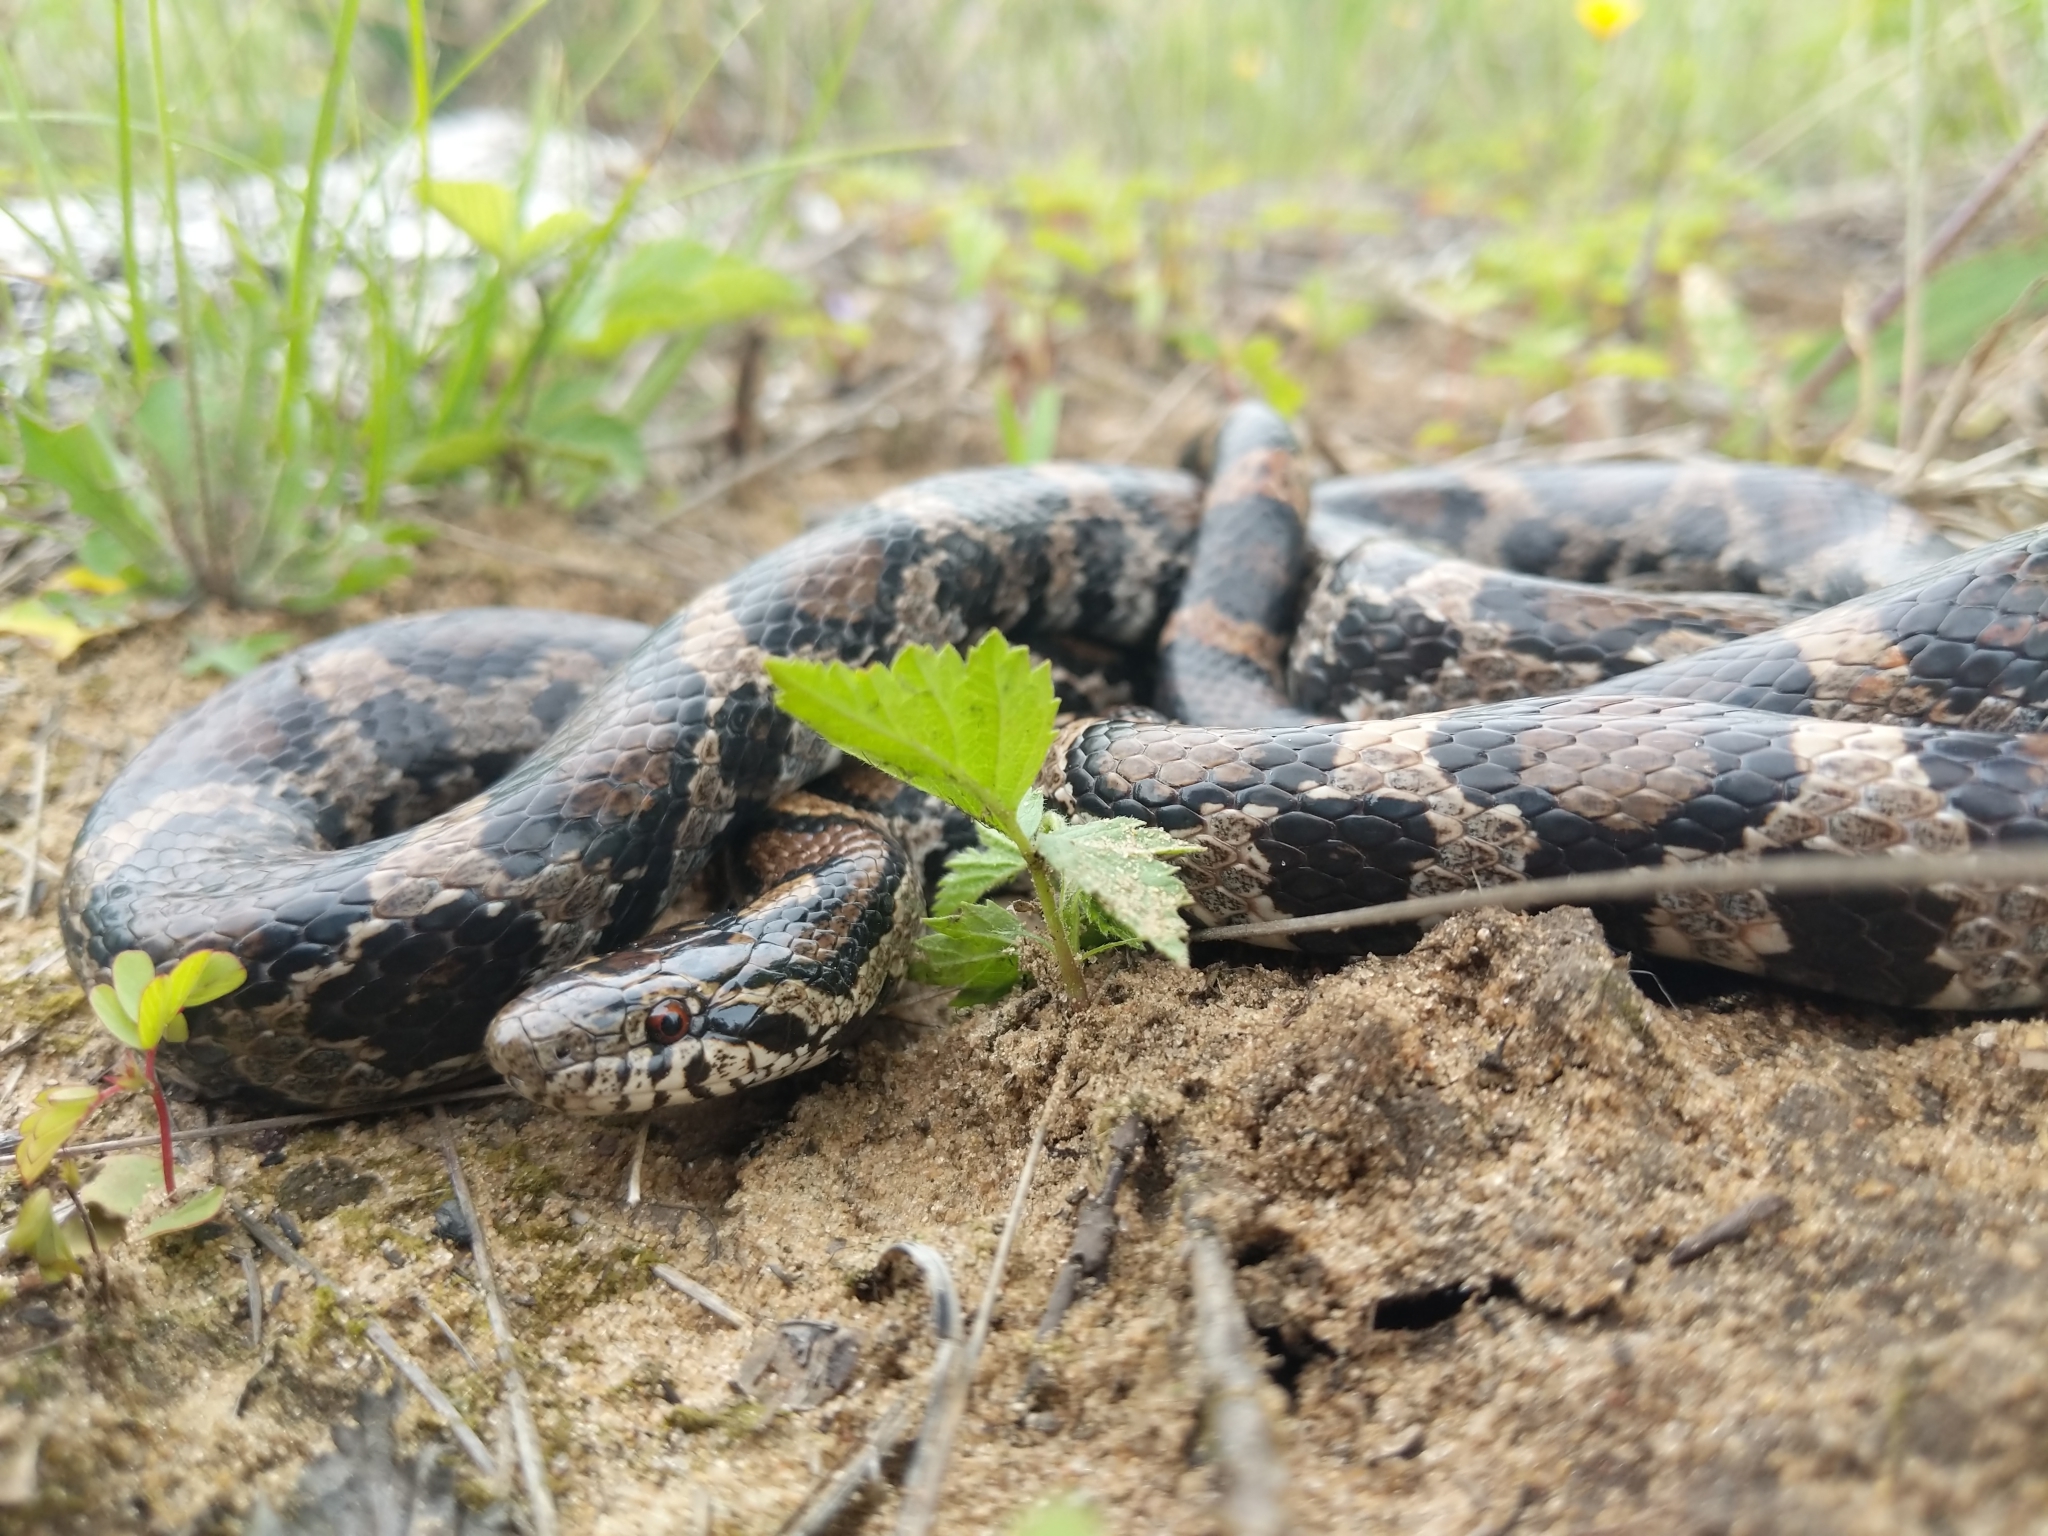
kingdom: Animalia
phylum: Chordata
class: Squamata
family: Colubridae
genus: Lampropeltis
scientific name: Lampropeltis triangulum
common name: Eastern milksnake
